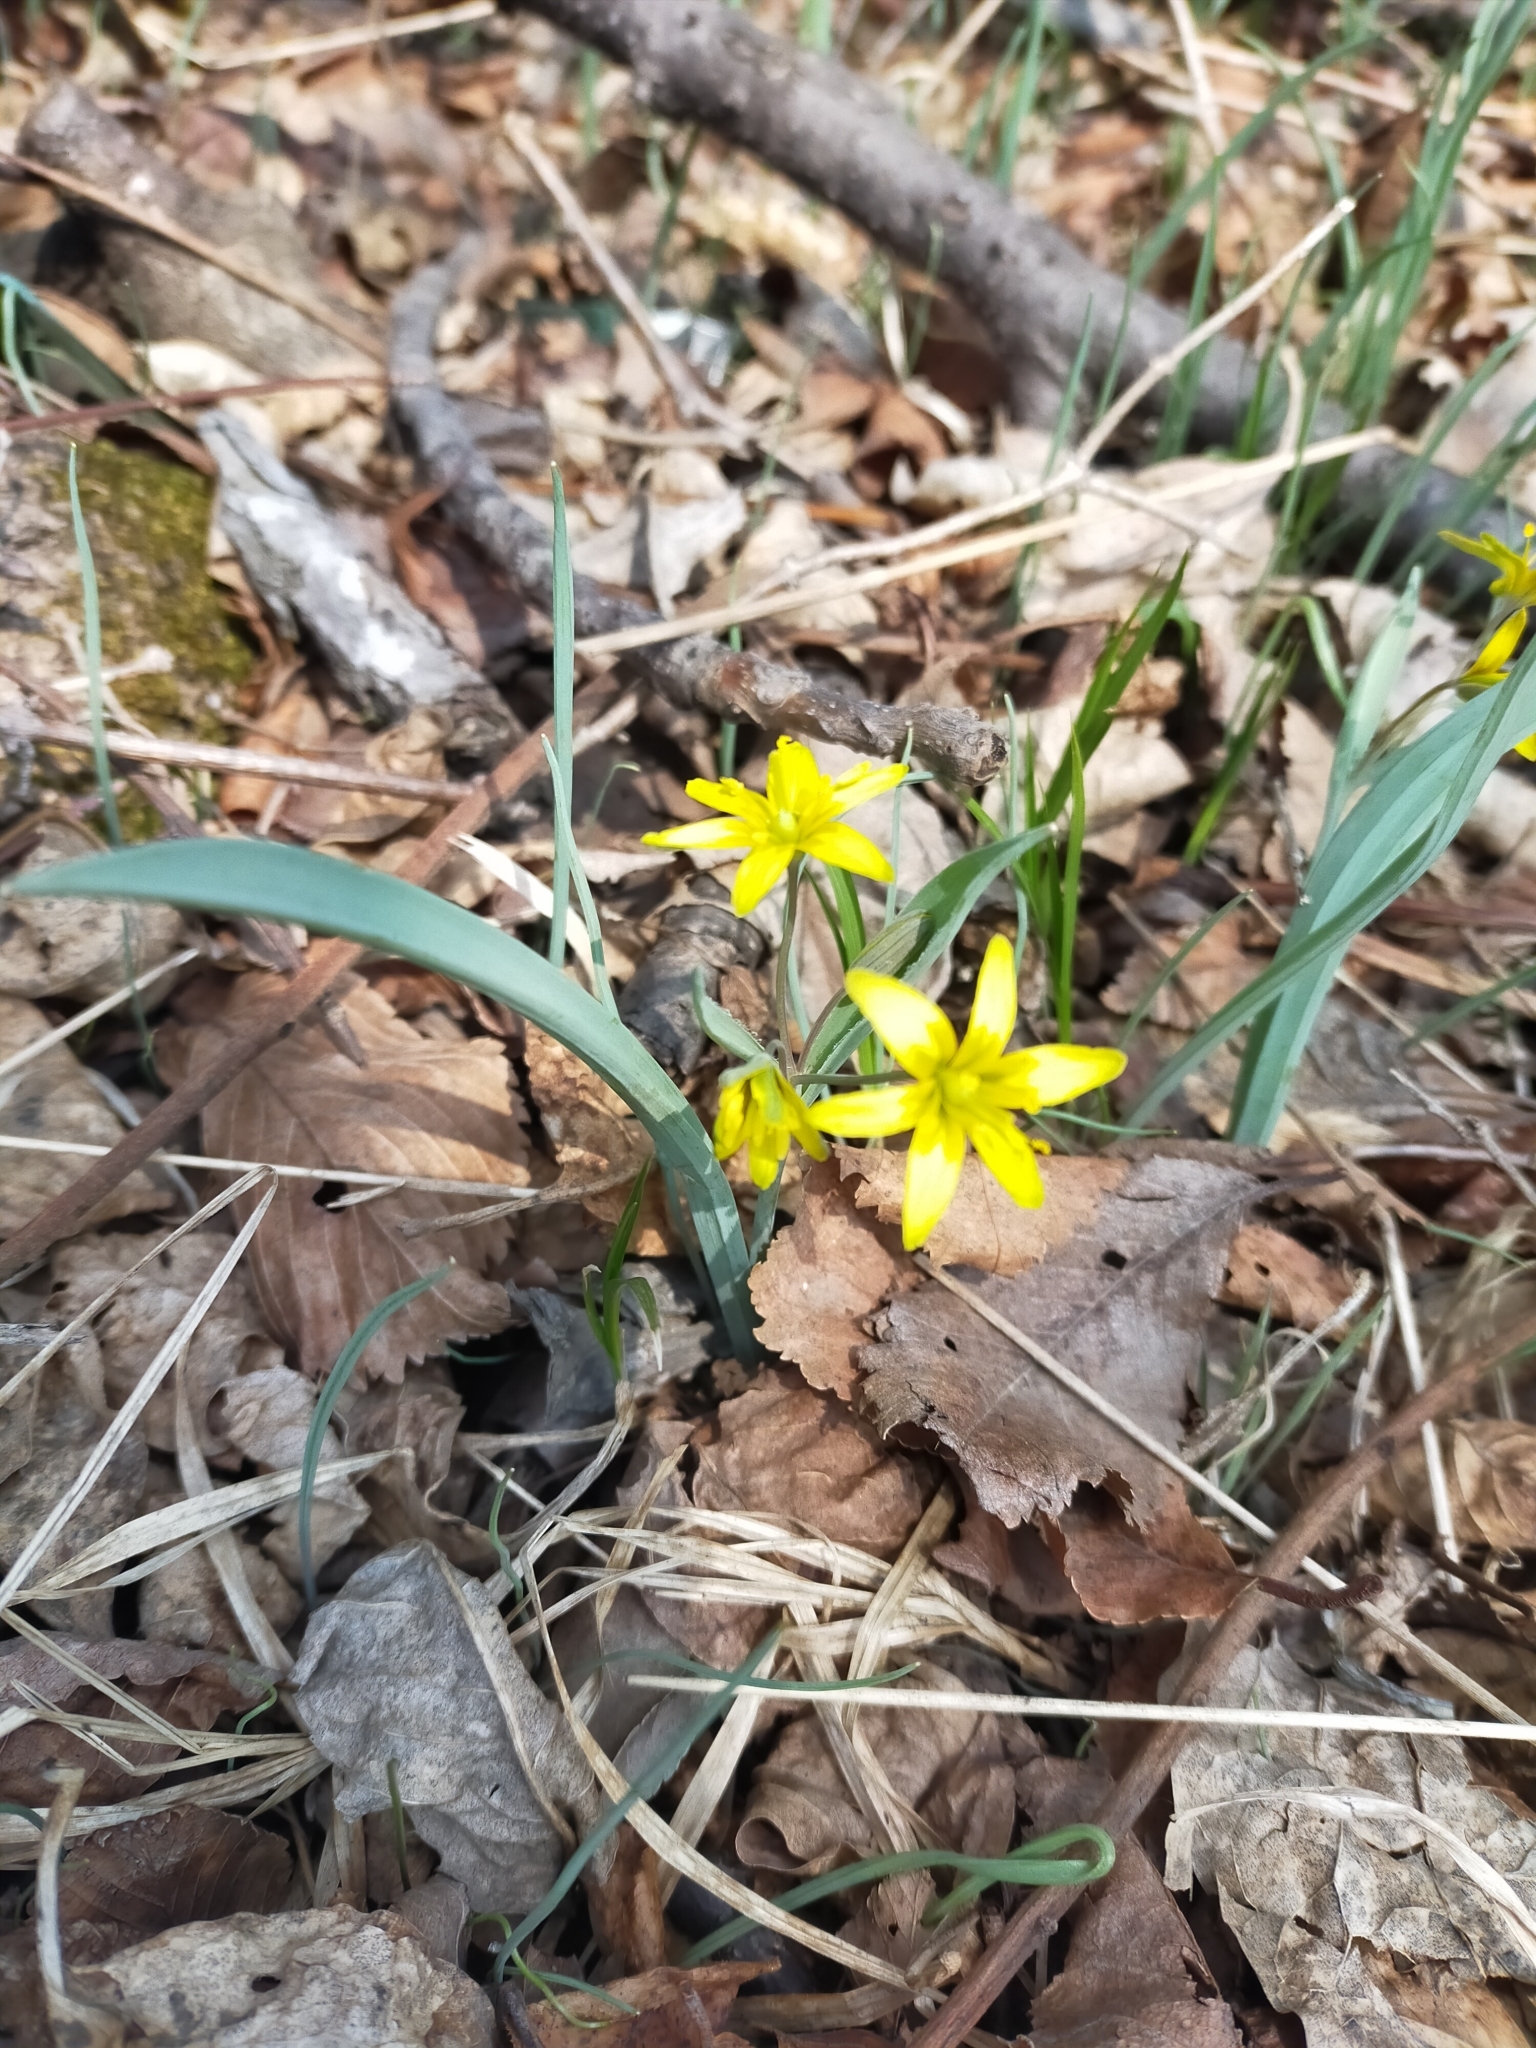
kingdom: Plantae
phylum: Tracheophyta
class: Liliopsida
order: Liliales
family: Liliaceae
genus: Gagea
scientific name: Gagea nakaiana
